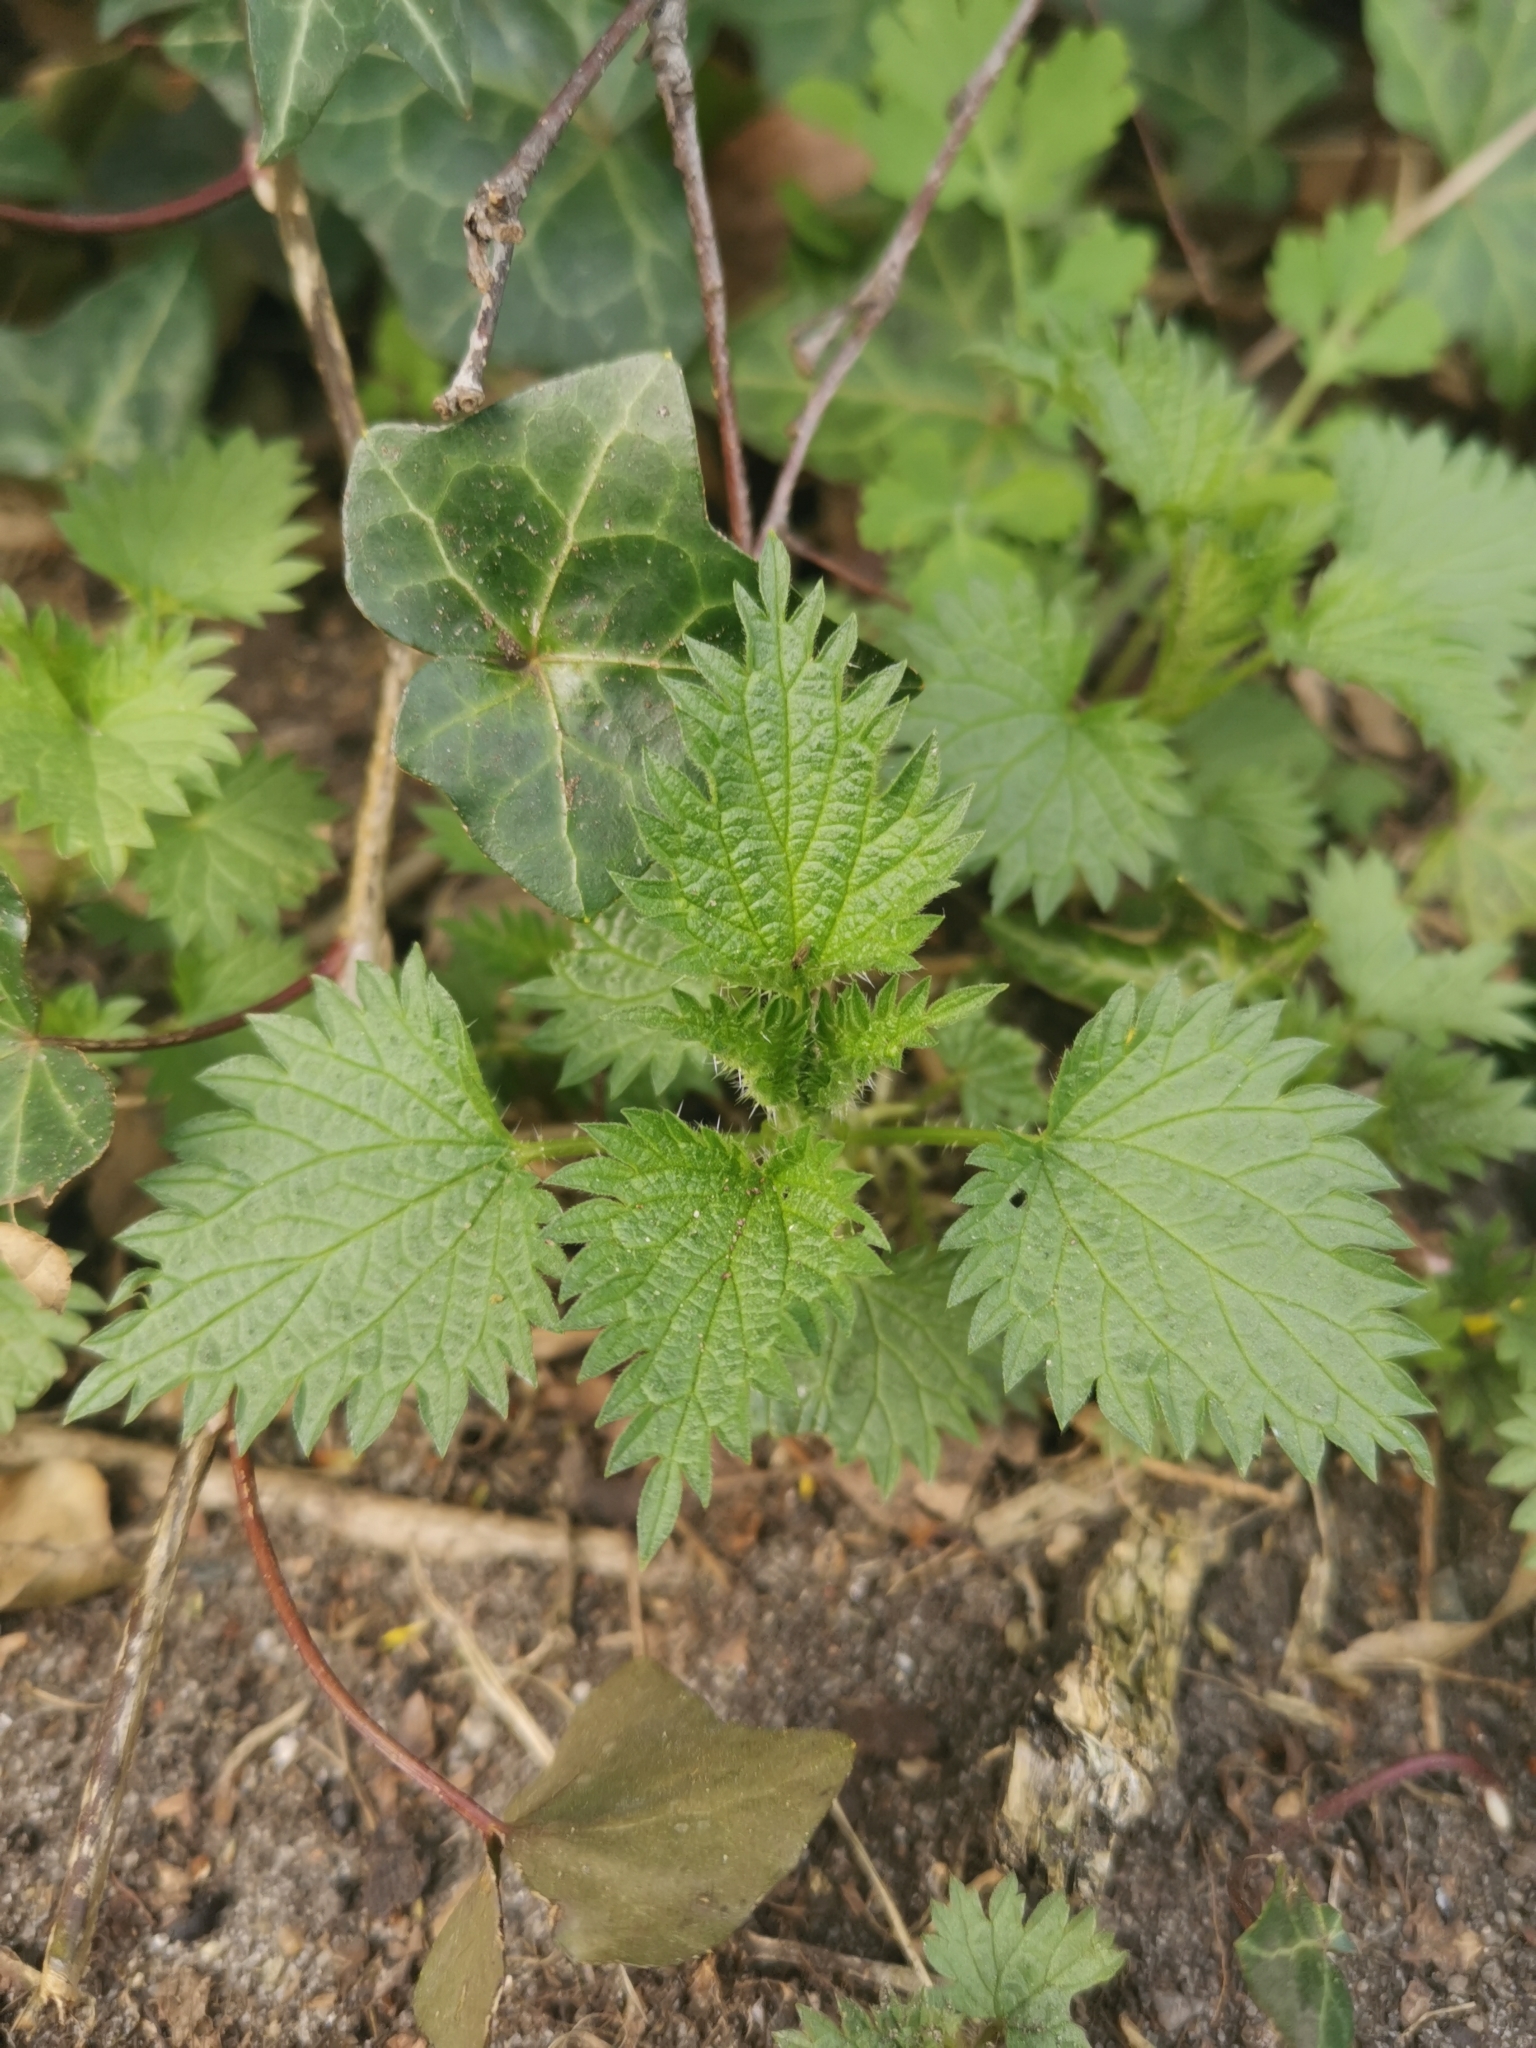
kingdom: Plantae
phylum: Tracheophyta
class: Magnoliopsida
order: Rosales
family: Urticaceae
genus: Urtica
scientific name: Urtica dioica
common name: Common nettle
